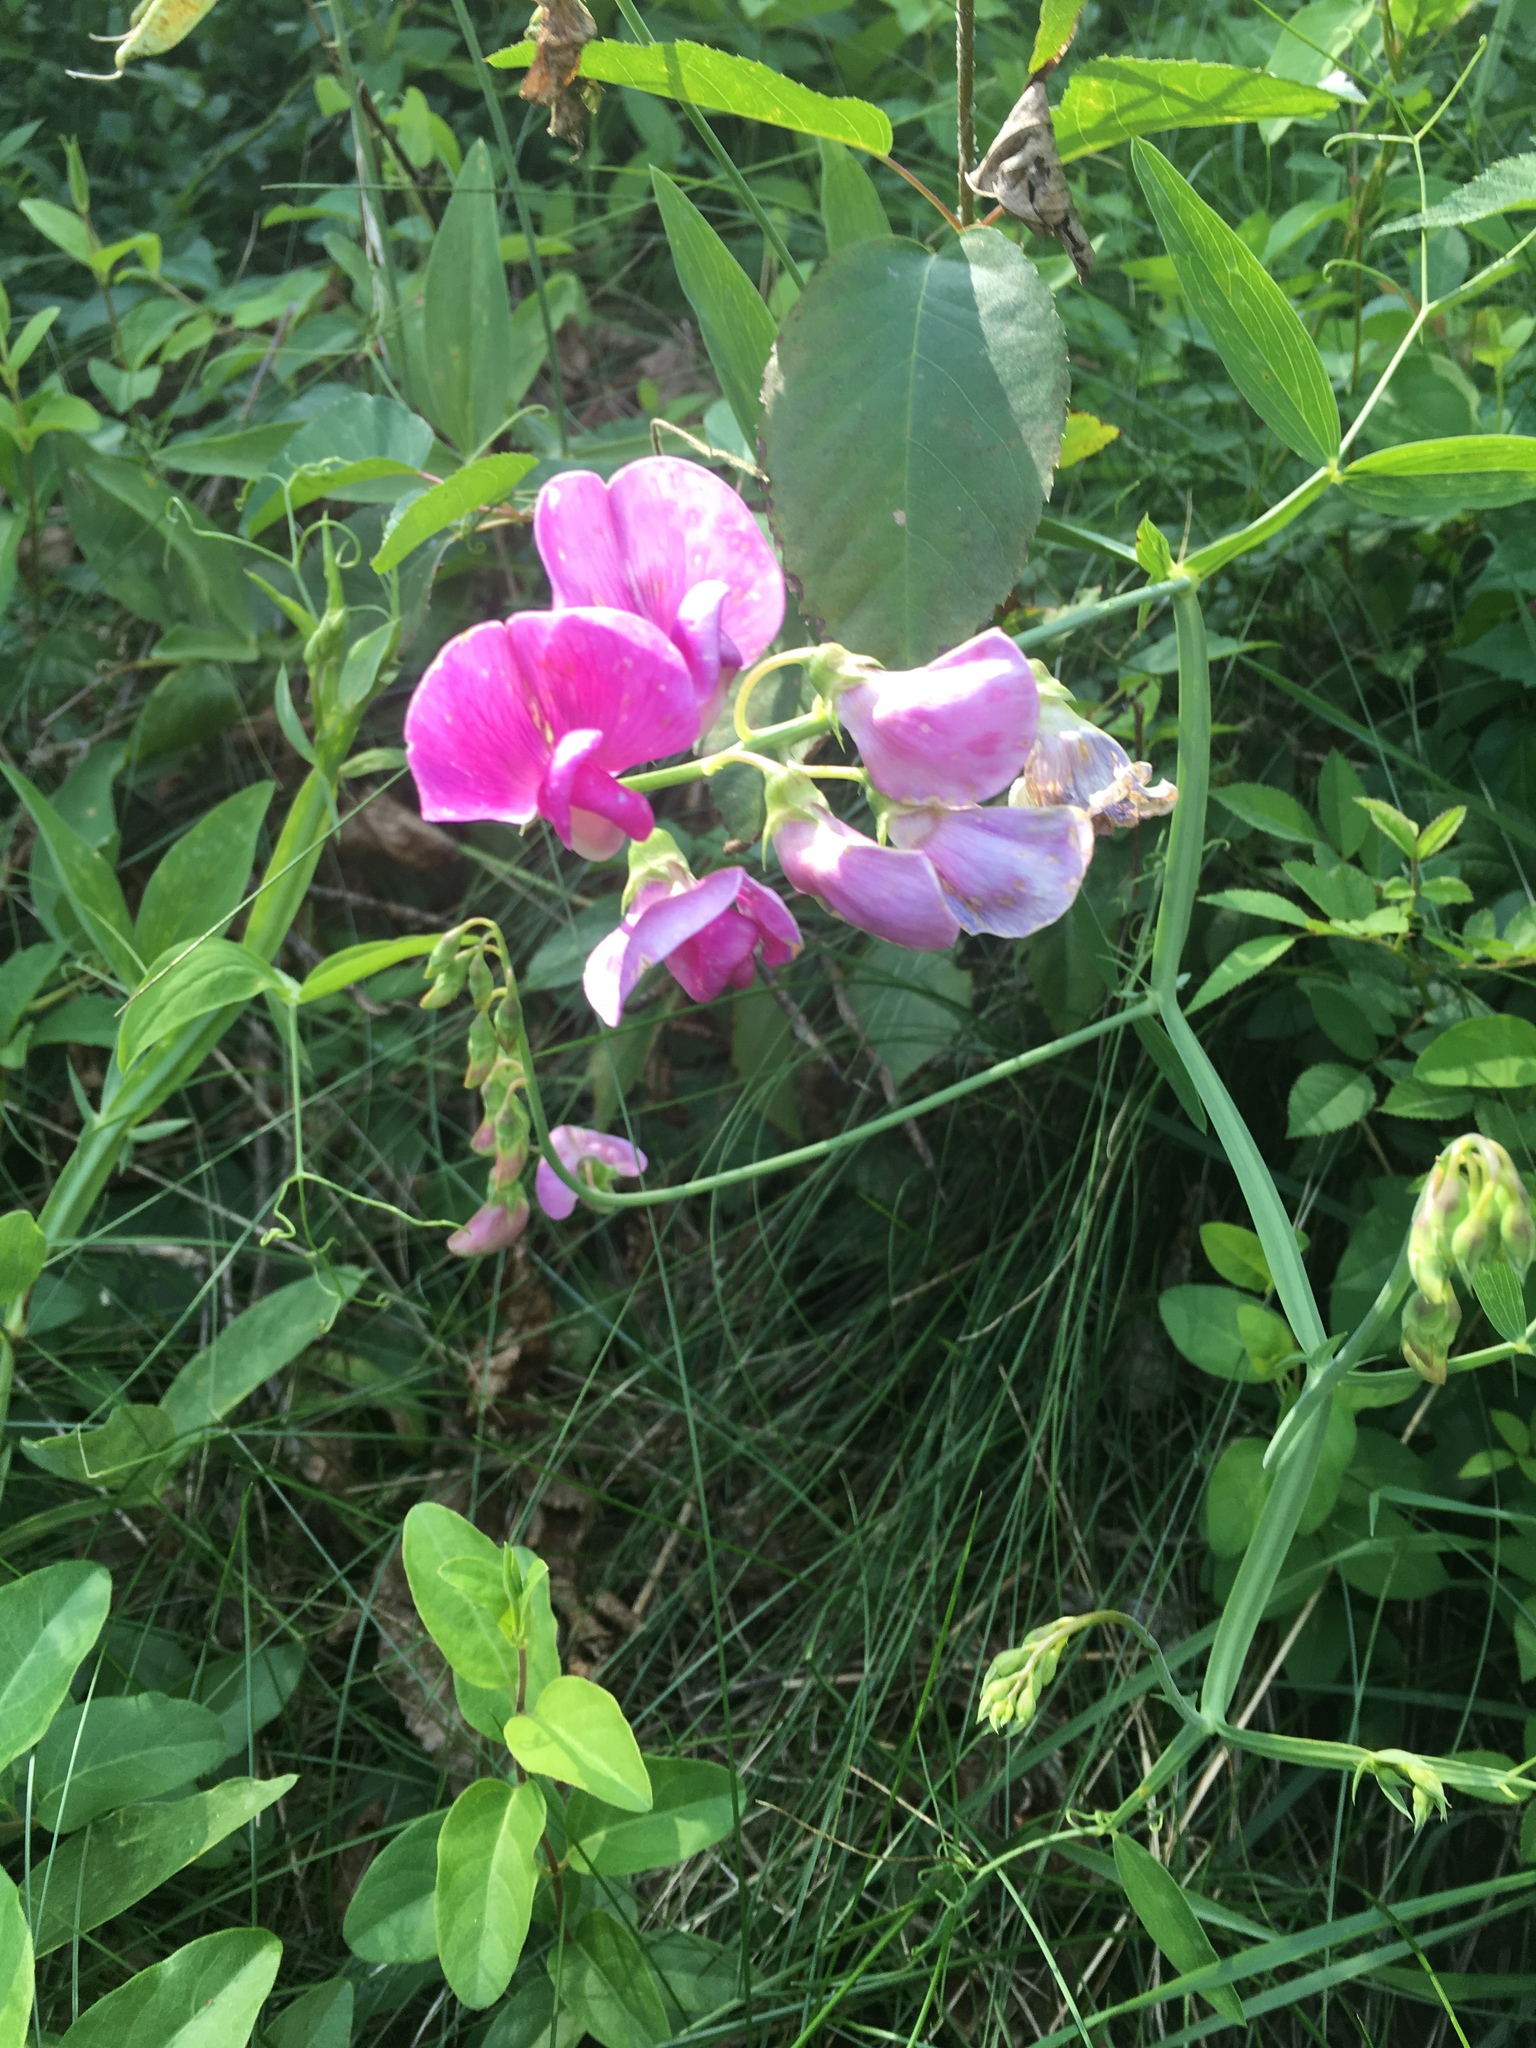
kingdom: Plantae
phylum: Tracheophyta
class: Magnoliopsida
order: Fabales
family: Fabaceae
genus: Lathyrus
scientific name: Lathyrus latifolius
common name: Perennial pea
